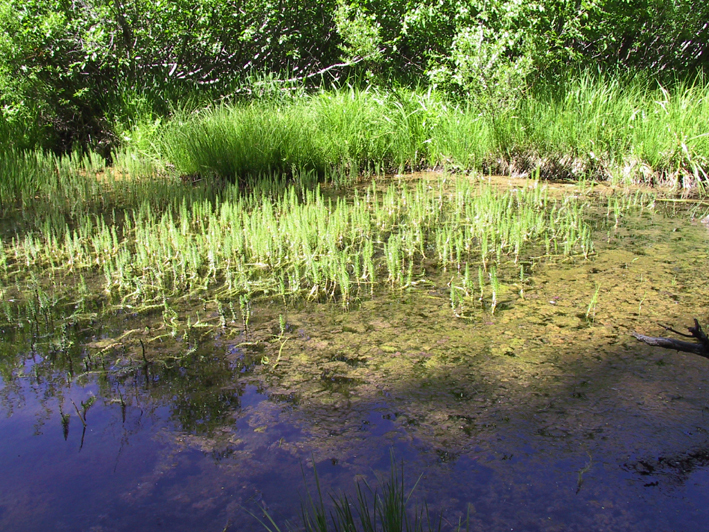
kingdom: Plantae
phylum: Tracheophyta
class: Magnoliopsida
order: Lamiales
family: Plantaginaceae
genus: Hippuris
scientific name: Hippuris vulgaris
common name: Mare's-tail
